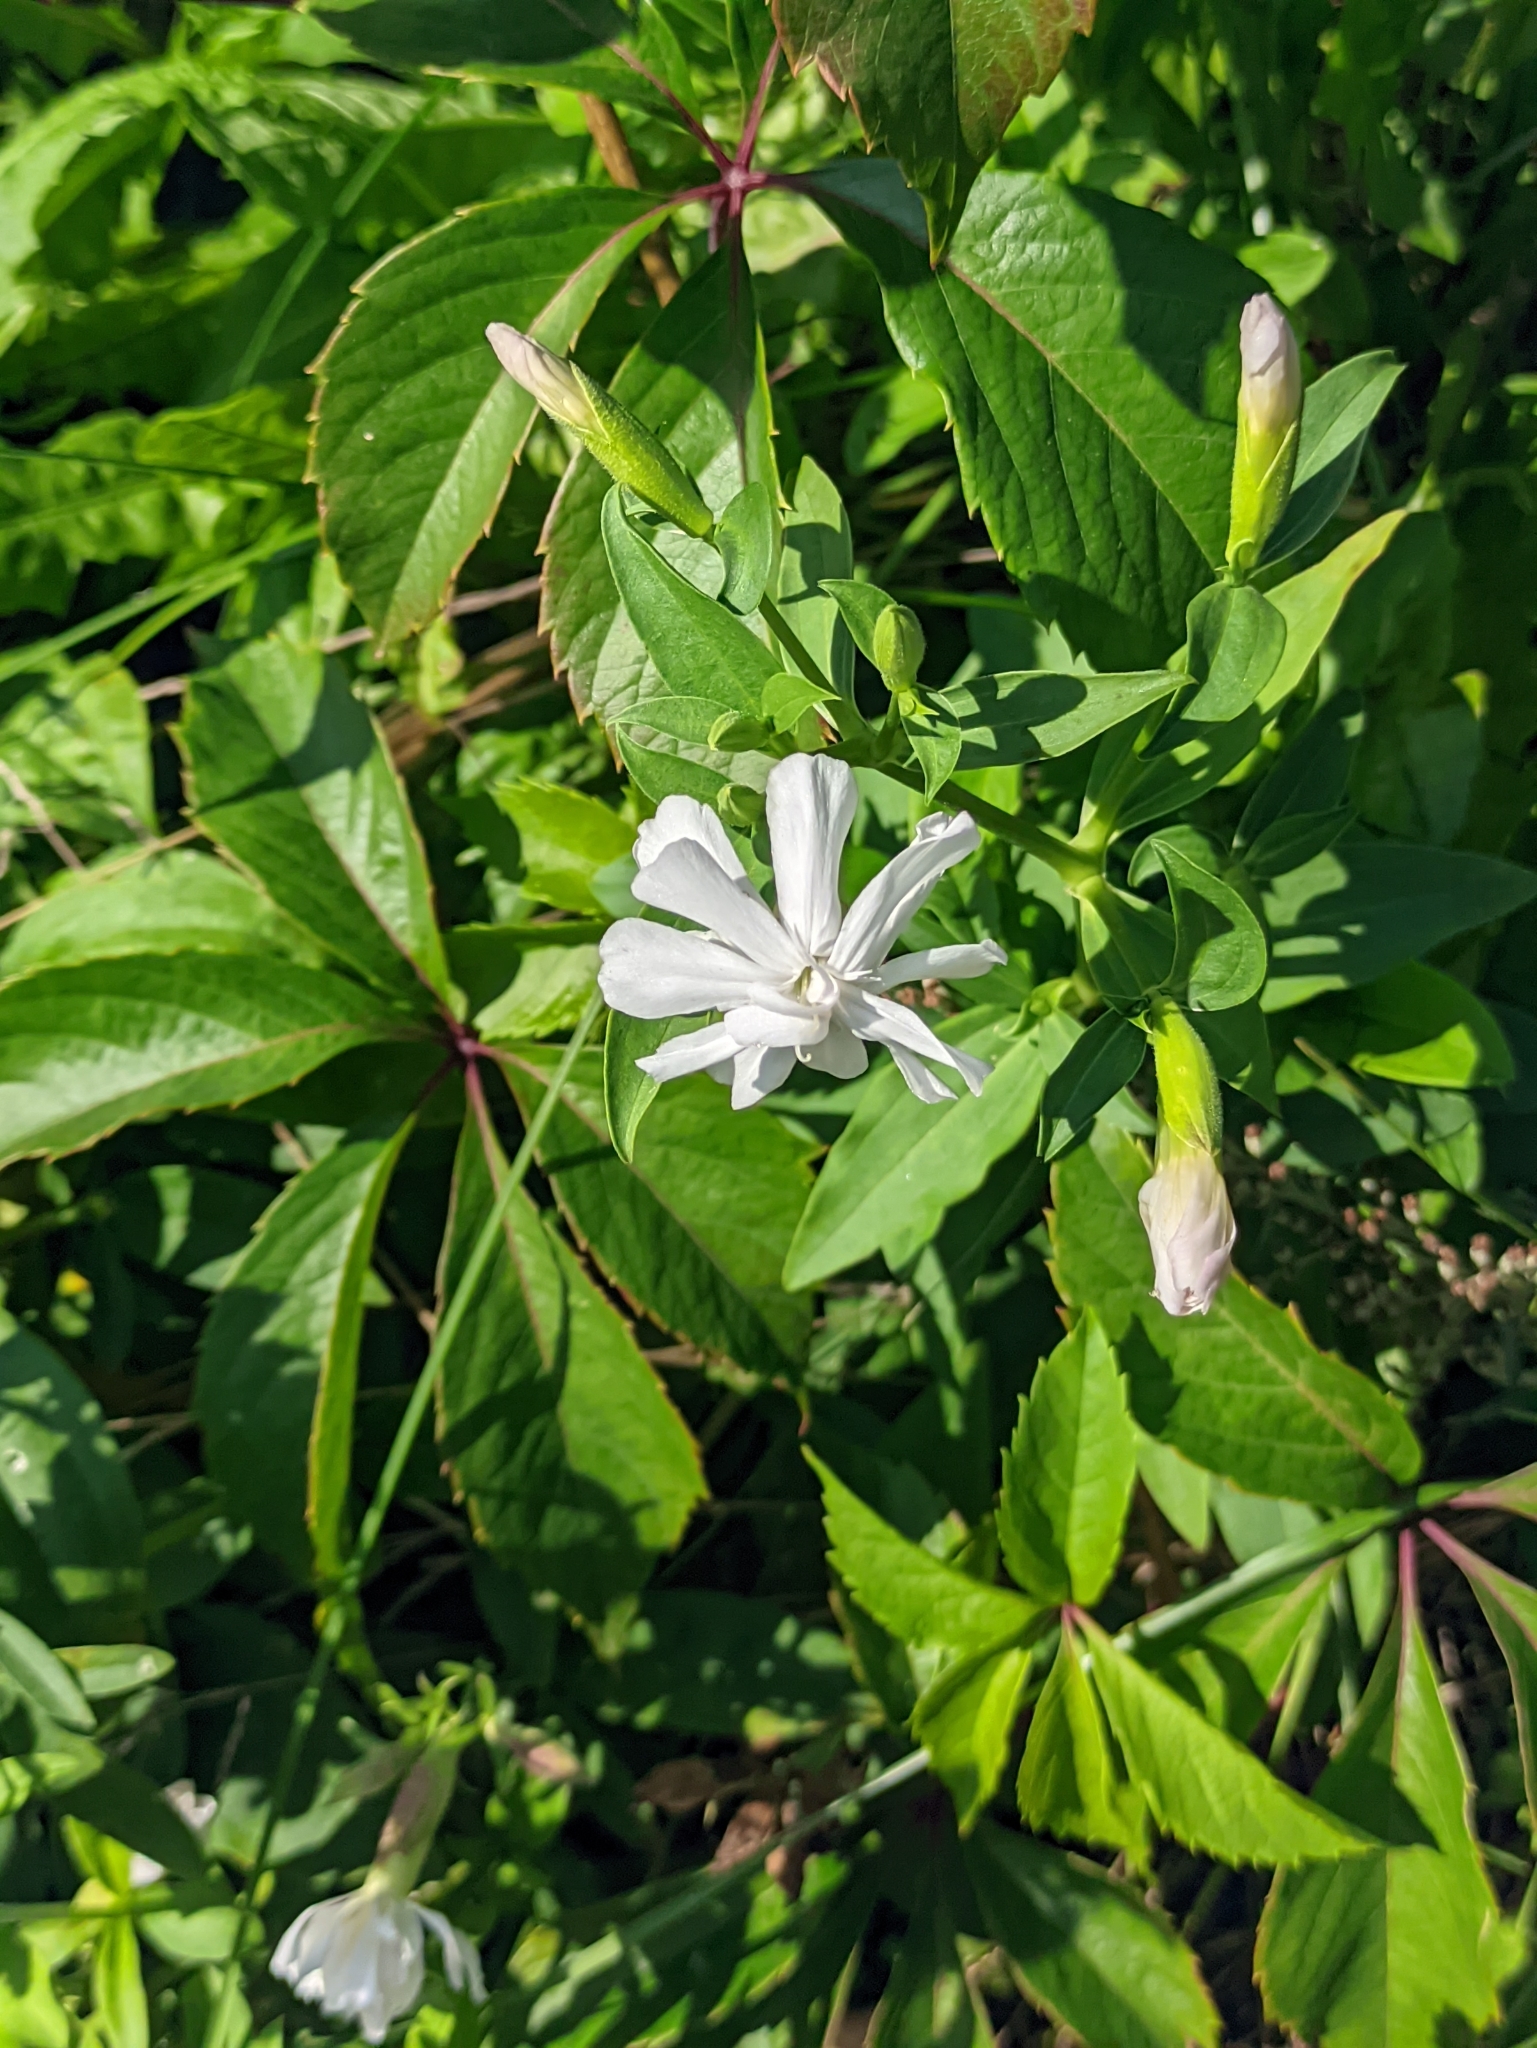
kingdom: Plantae
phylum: Tracheophyta
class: Magnoliopsida
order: Caryophyllales
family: Caryophyllaceae
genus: Saponaria
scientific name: Saponaria officinalis
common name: Soapwort
